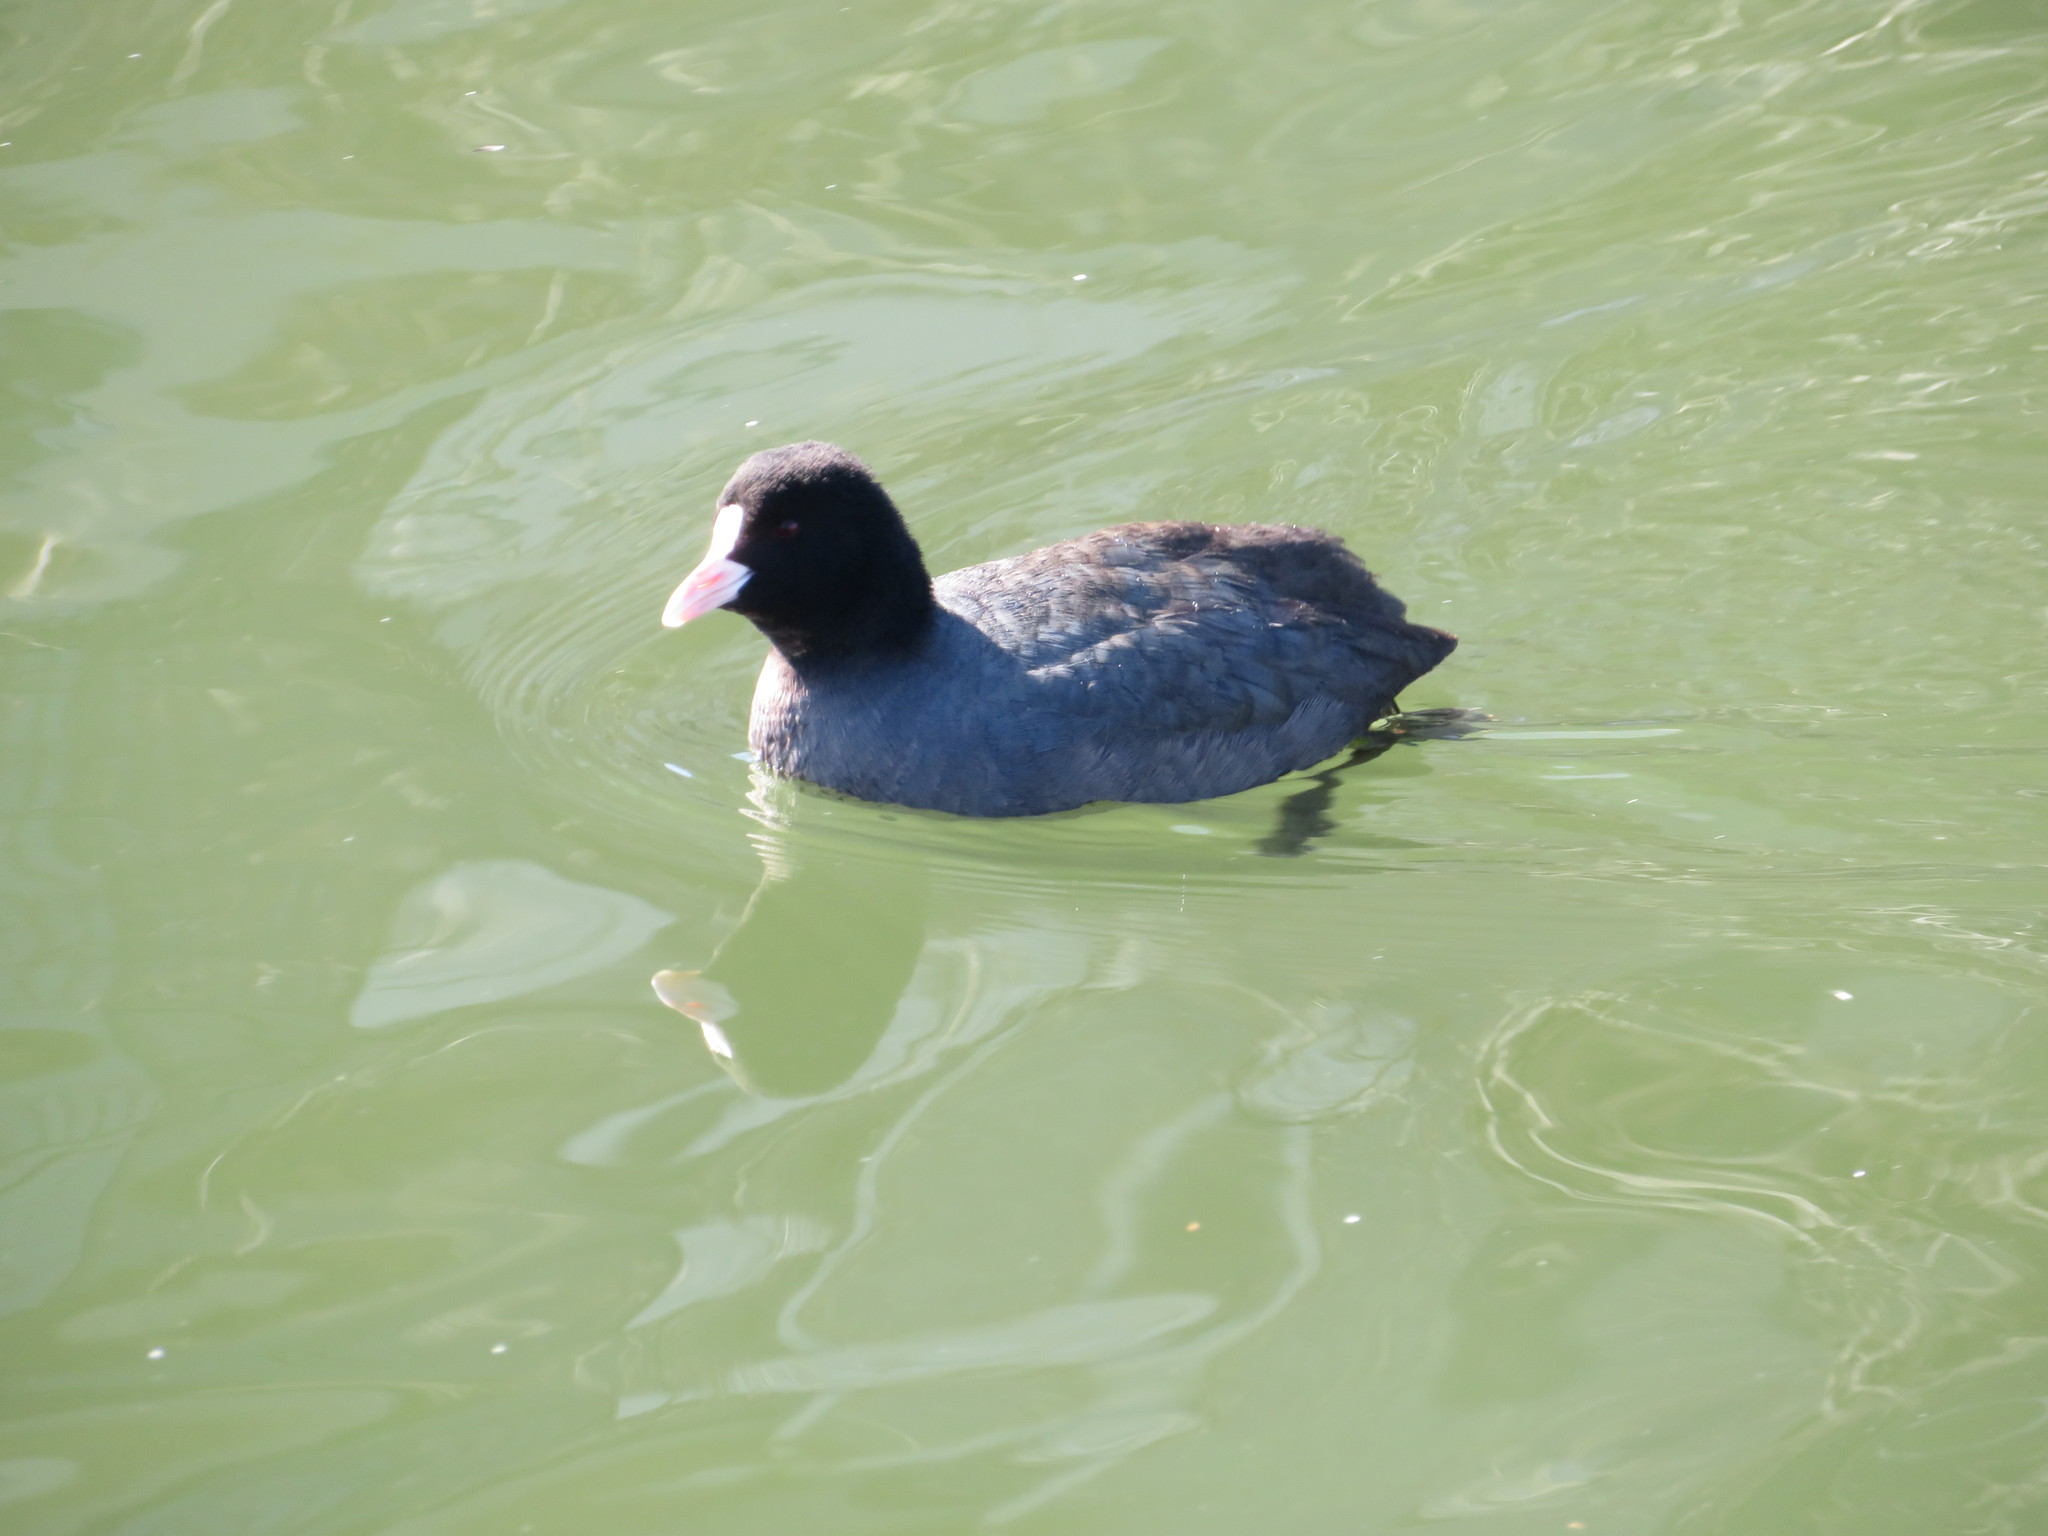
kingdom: Animalia
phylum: Chordata
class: Aves
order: Gruiformes
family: Rallidae
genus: Fulica
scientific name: Fulica atra
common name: Eurasian coot
